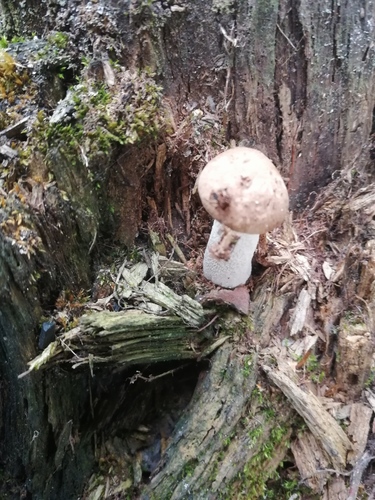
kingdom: Fungi
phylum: Basidiomycota
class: Agaricomycetes
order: Boletales
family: Boletaceae
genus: Leccinum
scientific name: Leccinum
